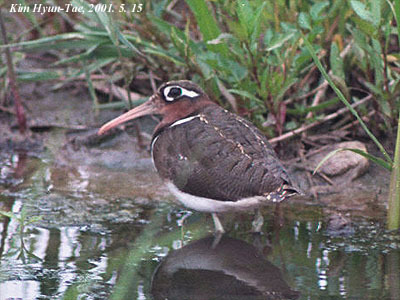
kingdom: Animalia
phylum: Chordata
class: Aves
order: Charadriiformes
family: Rostratulidae
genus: Rostratula
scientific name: Rostratula benghalensis
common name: Greater painted-snipe
